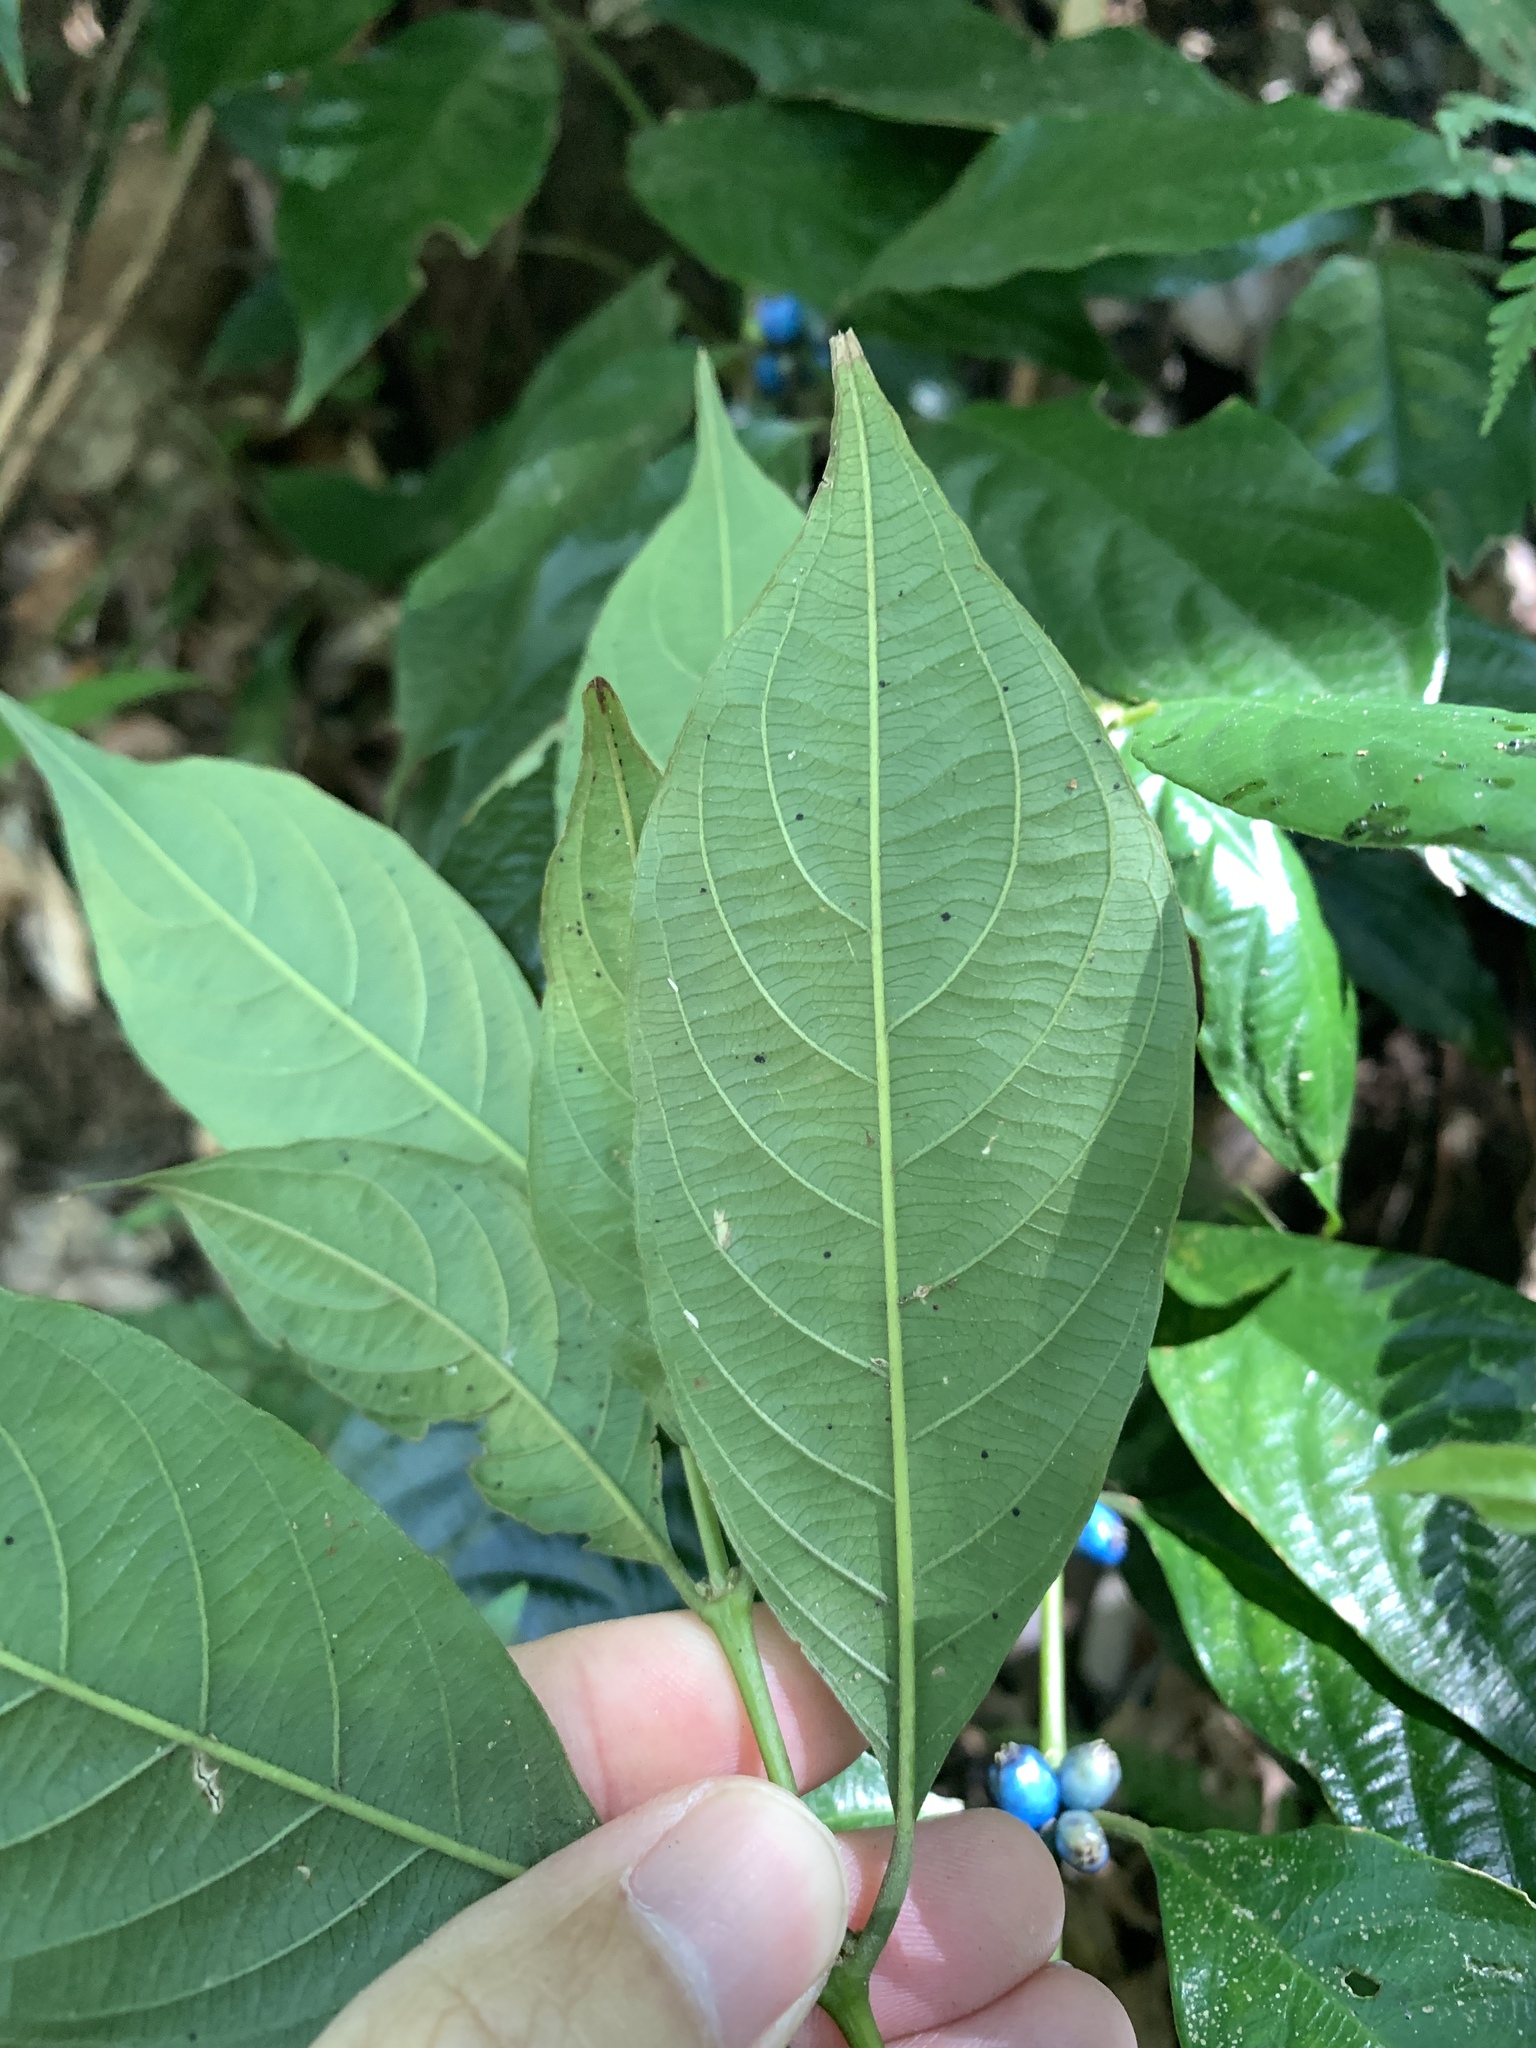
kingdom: Plantae
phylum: Tracheophyta
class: Magnoliopsida
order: Gentianales
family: Rubiaceae
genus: Lasianthus
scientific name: Lasianthus fordii
